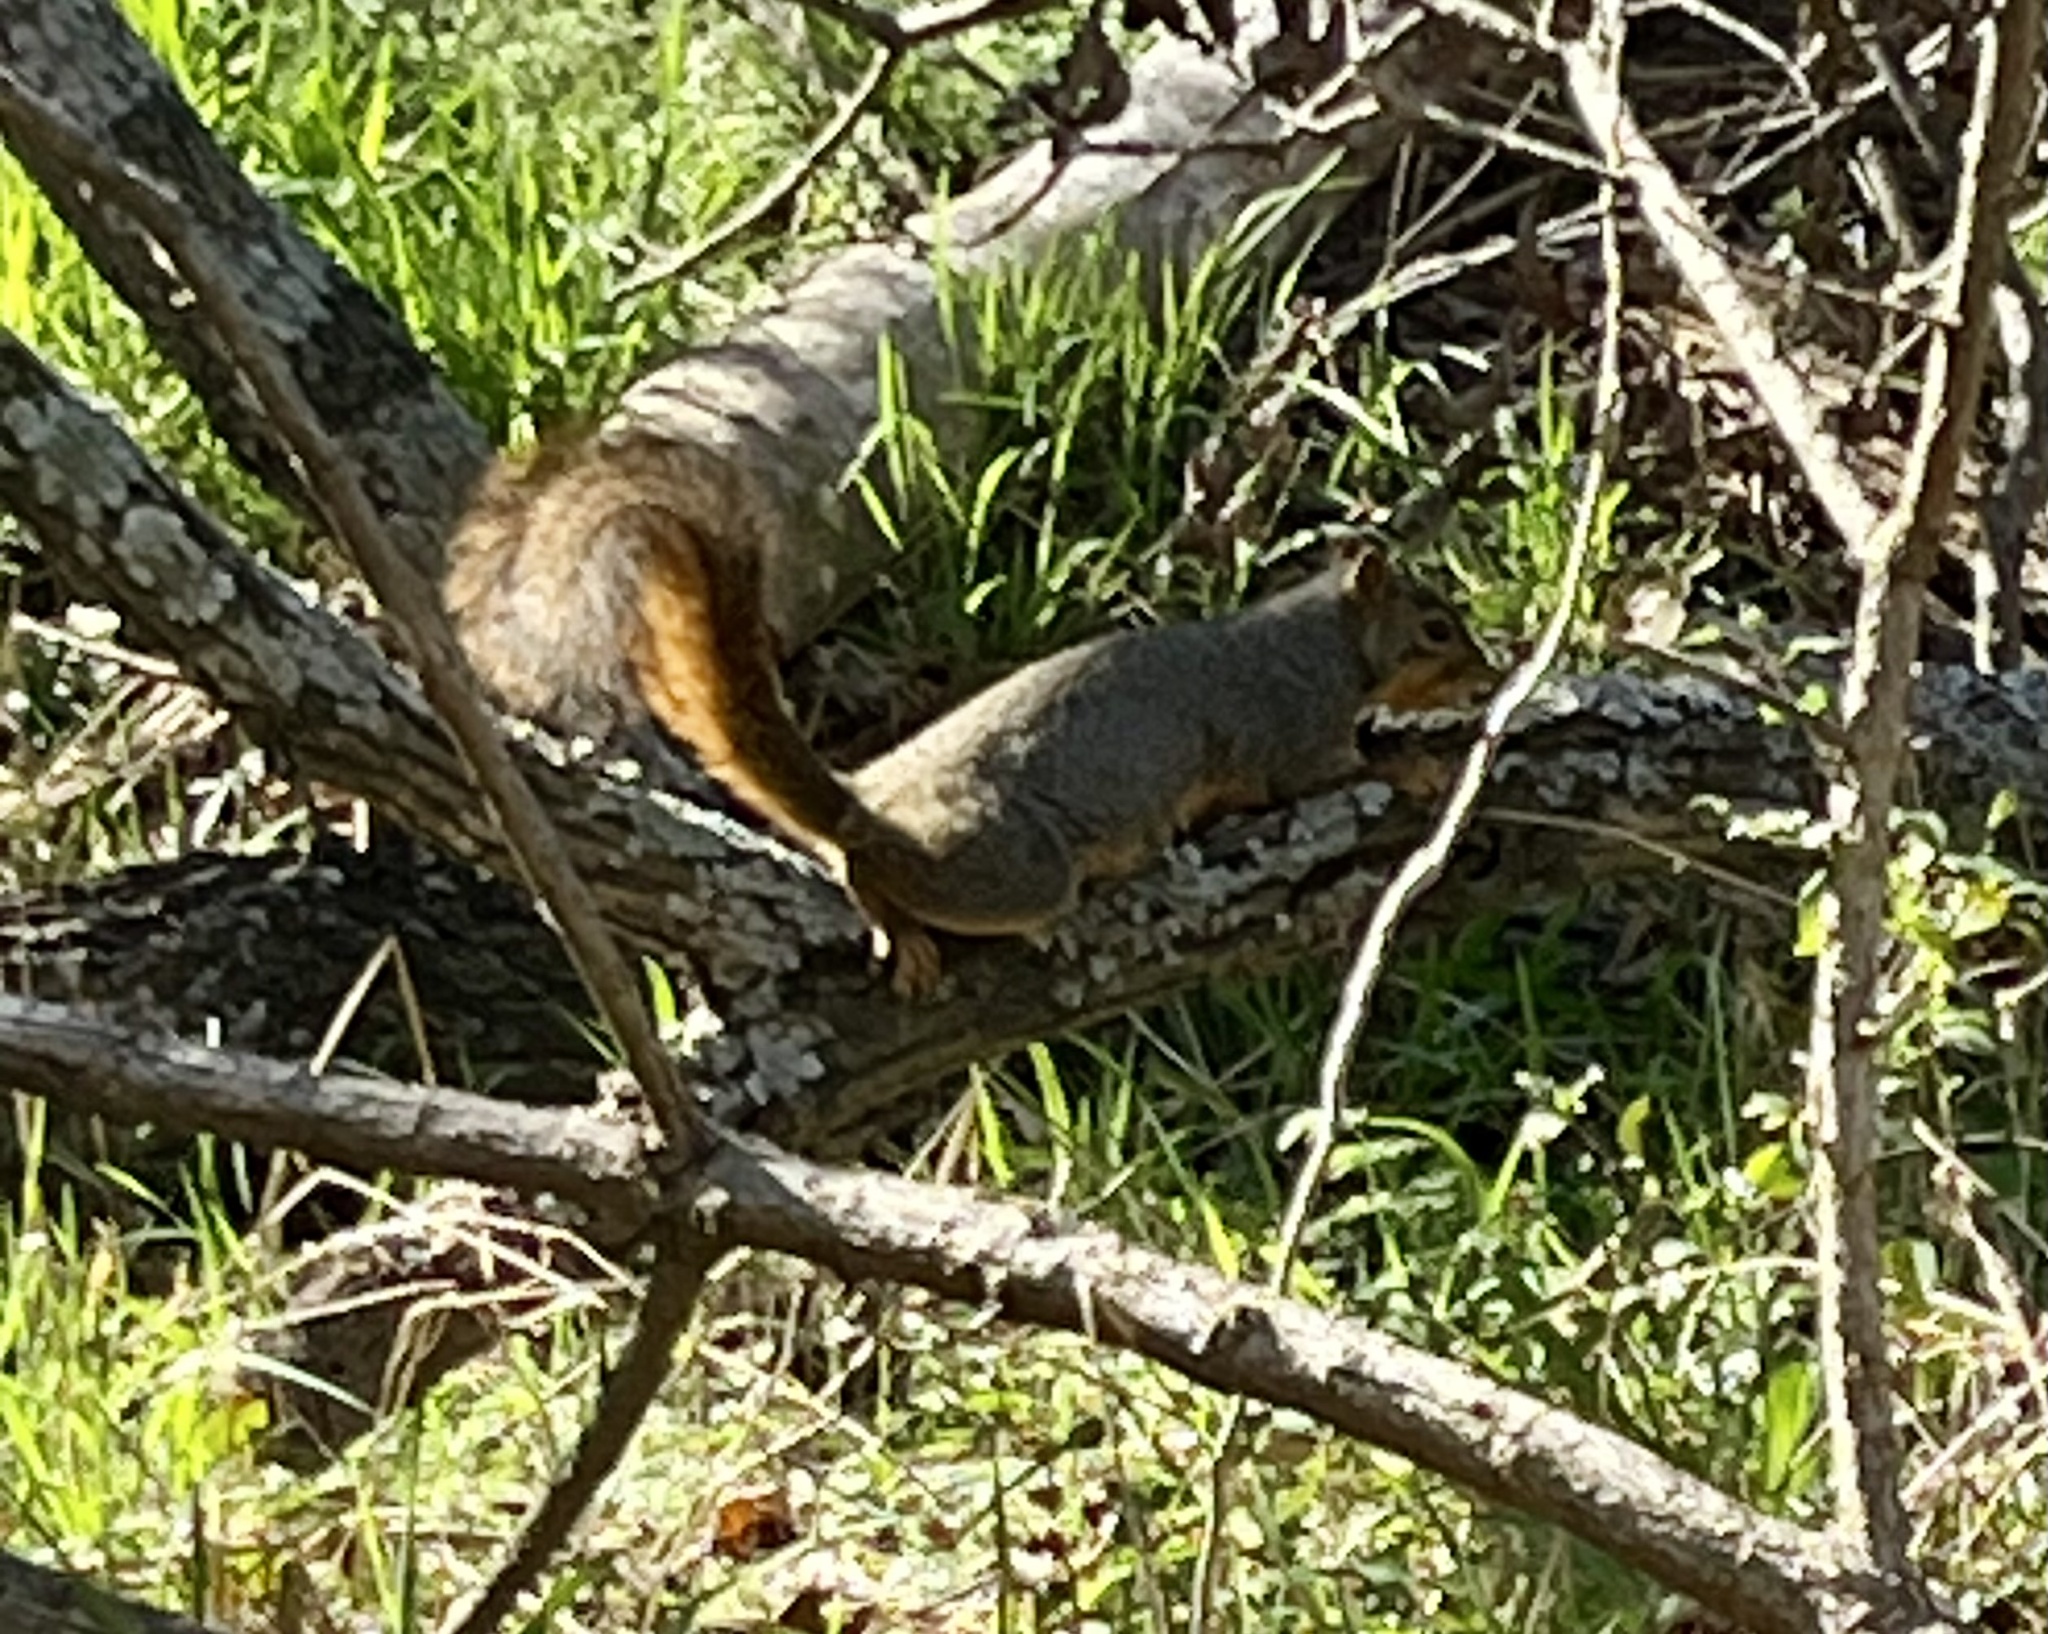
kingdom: Animalia
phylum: Chordata
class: Mammalia
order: Rodentia
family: Sciuridae
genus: Sciurus
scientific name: Sciurus niger
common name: Fox squirrel
